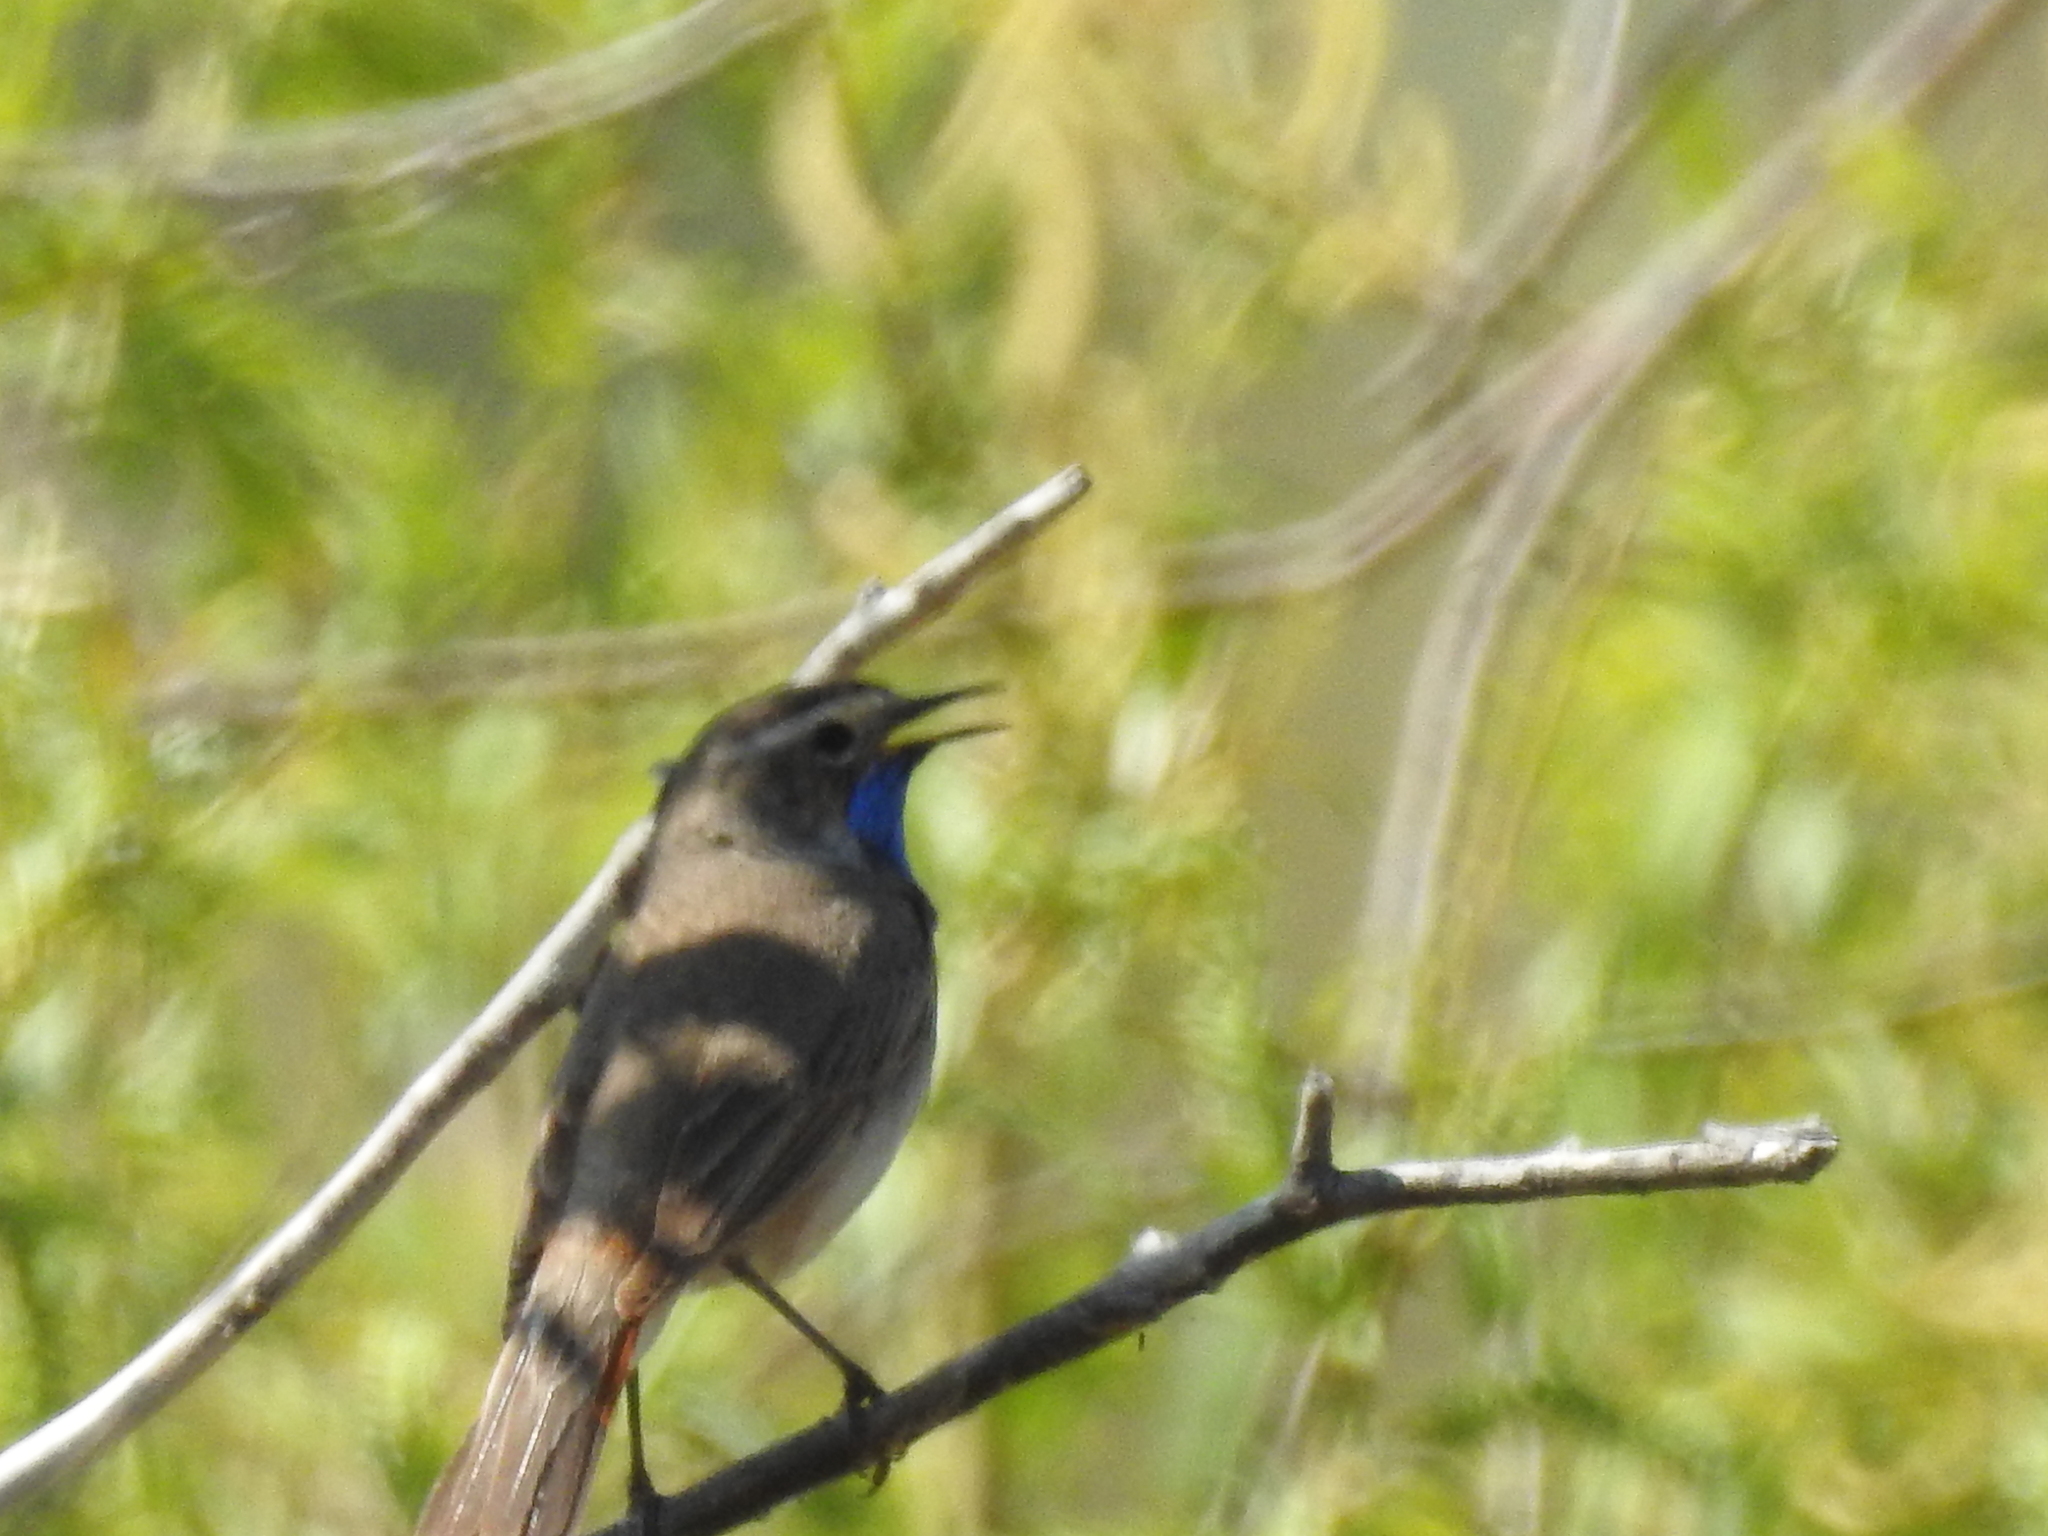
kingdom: Animalia
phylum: Chordata
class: Aves
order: Passeriformes
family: Muscicapidae
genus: Luscinia
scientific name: Luscinia svecica
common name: Bluethroat
